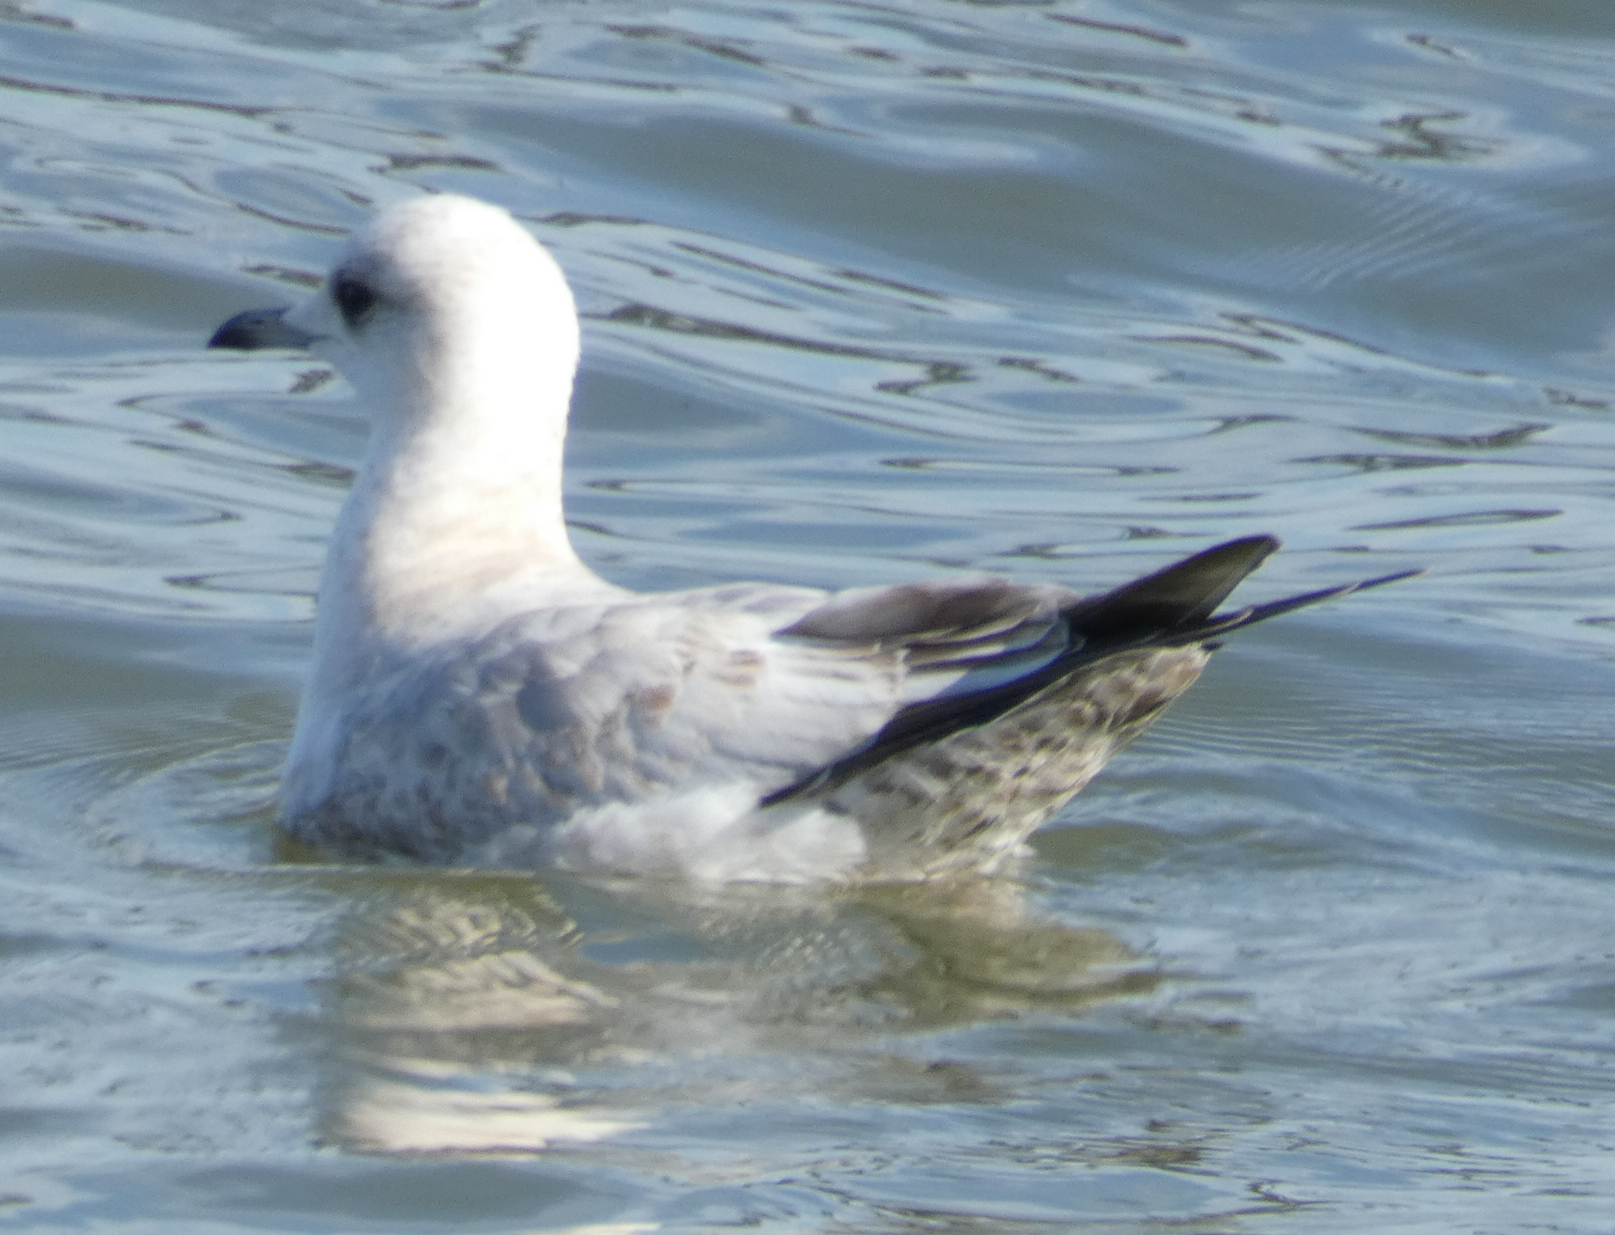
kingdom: Animalia
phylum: Chordata
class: Aves
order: Charadriiformes
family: Laridae
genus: Larus
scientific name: Larus brachyrhynchus
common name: Short-billed gull
